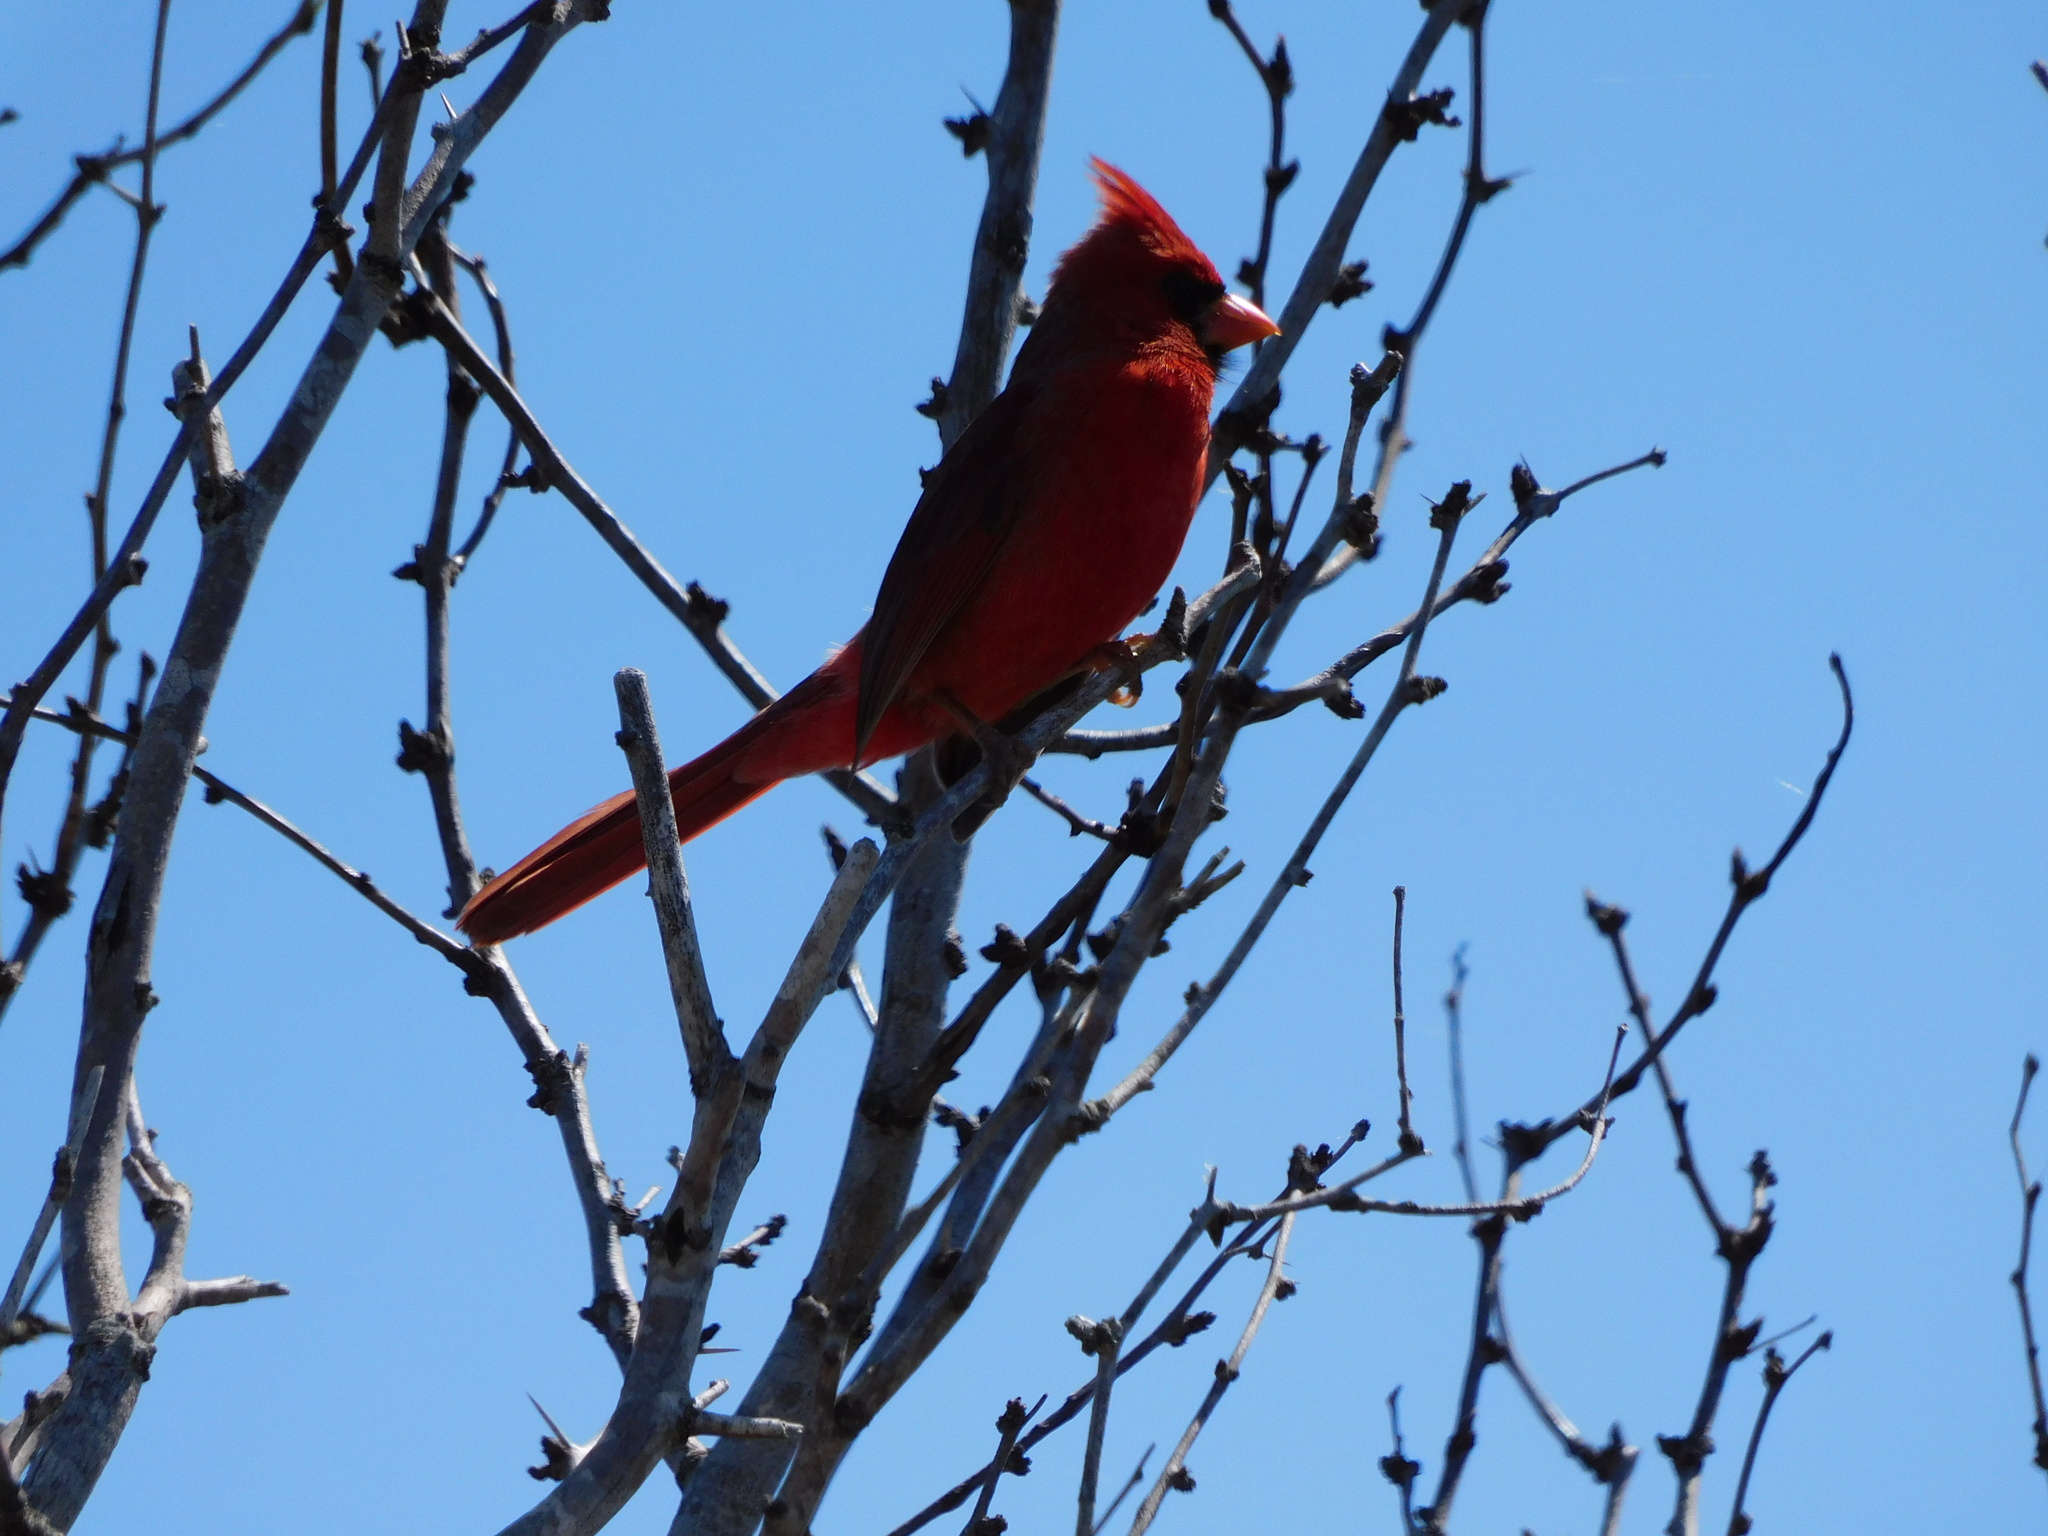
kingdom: Animalia
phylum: Chordata
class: Aves
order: Passeriformes
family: Cardinalidae
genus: Cardinalis
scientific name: Cardinalis cardinalis
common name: Northern cardinal
